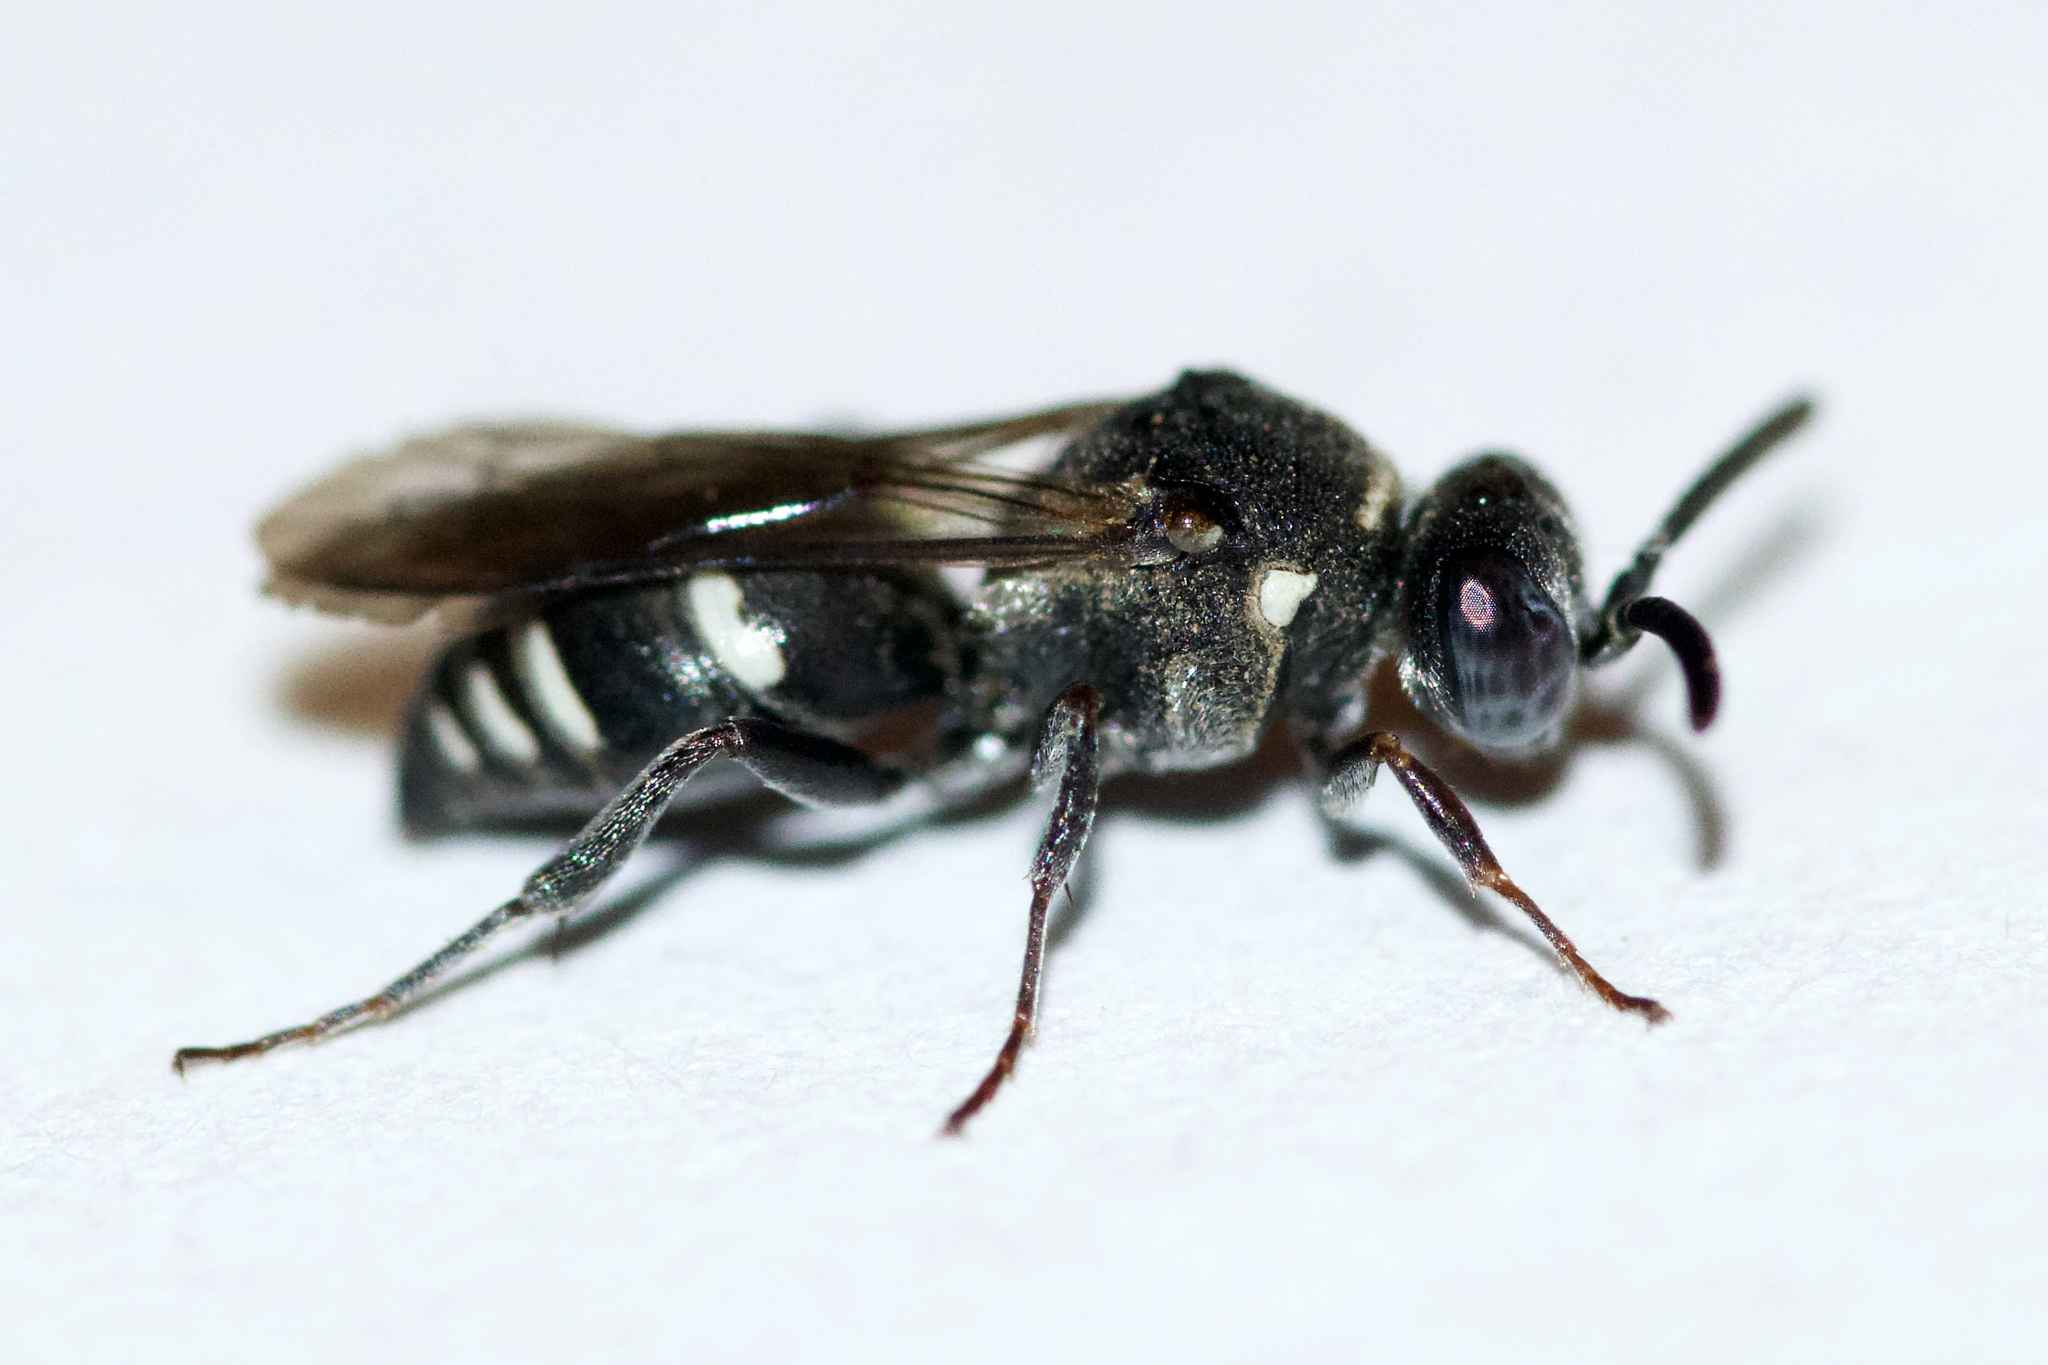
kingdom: Animalia
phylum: Arthropoda
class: Insecta
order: Hymenoptera
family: Crabronidae
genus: Nysson
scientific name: Nysson lateralis
